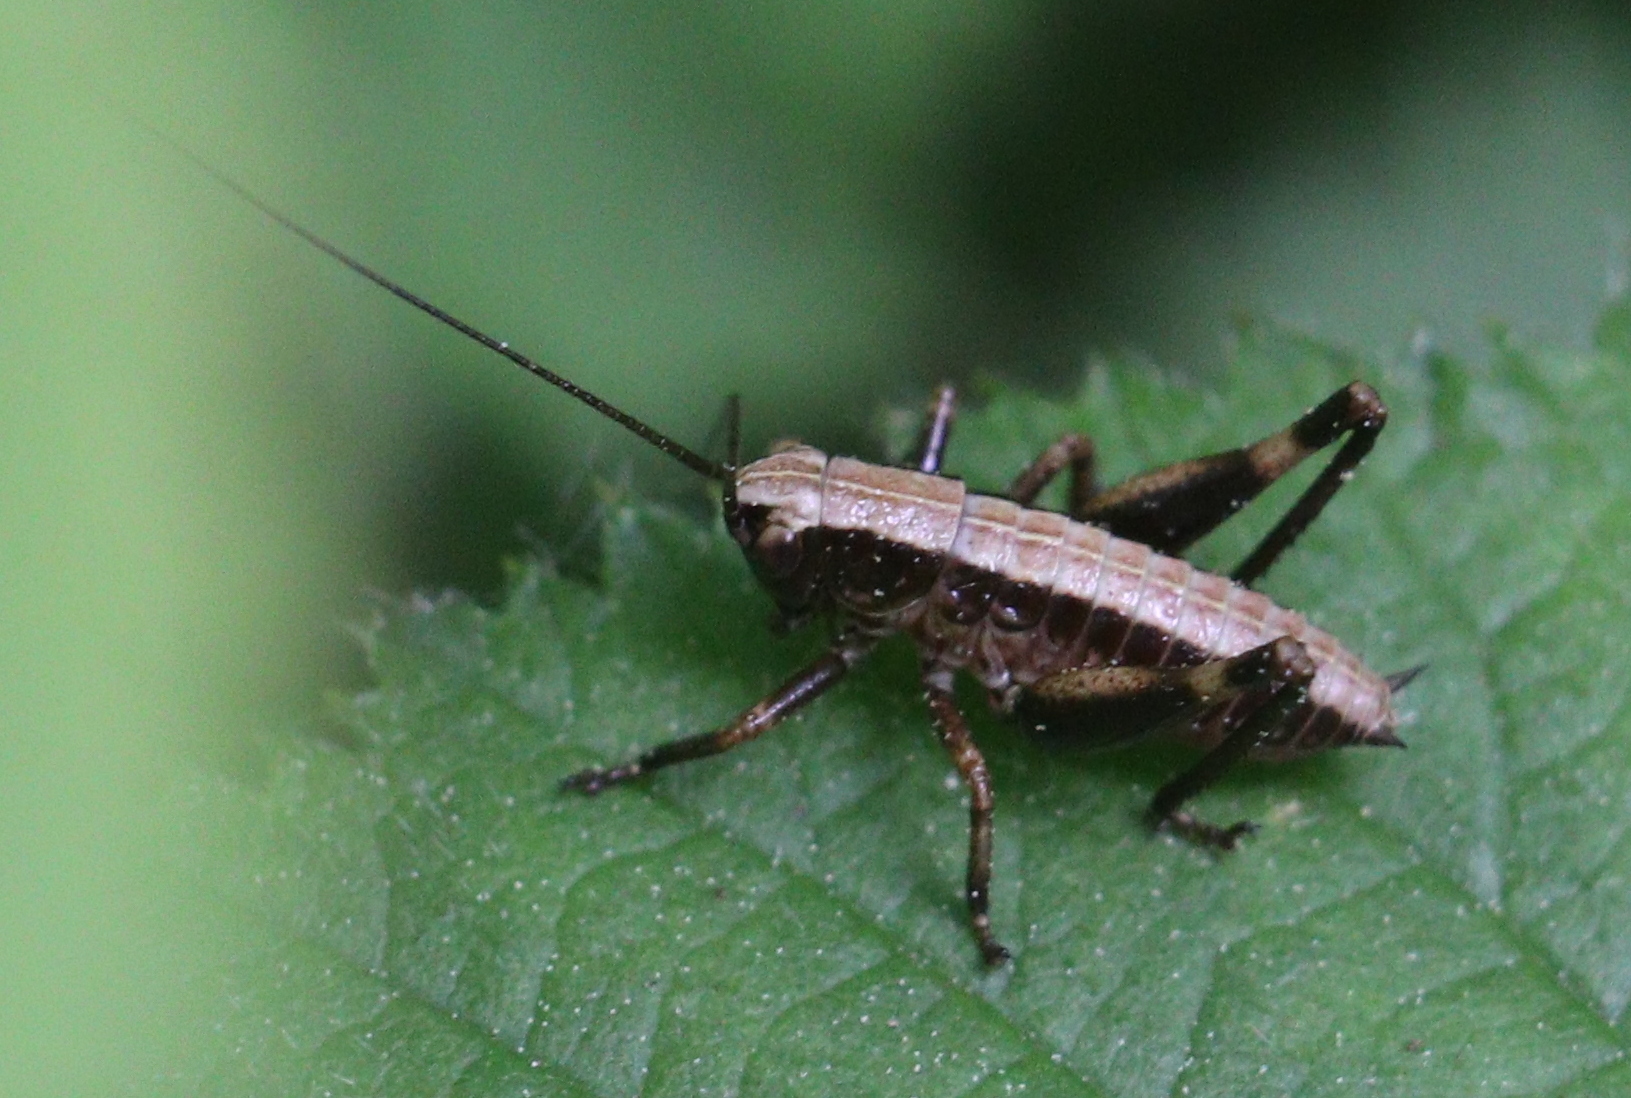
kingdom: Animalia
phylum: Arthropoda
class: Insecta
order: Orthoptera
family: Tettigoniidae
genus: Pholidoptera
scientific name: Pholidoptera griseoaptera
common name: Dark bush-cricket
